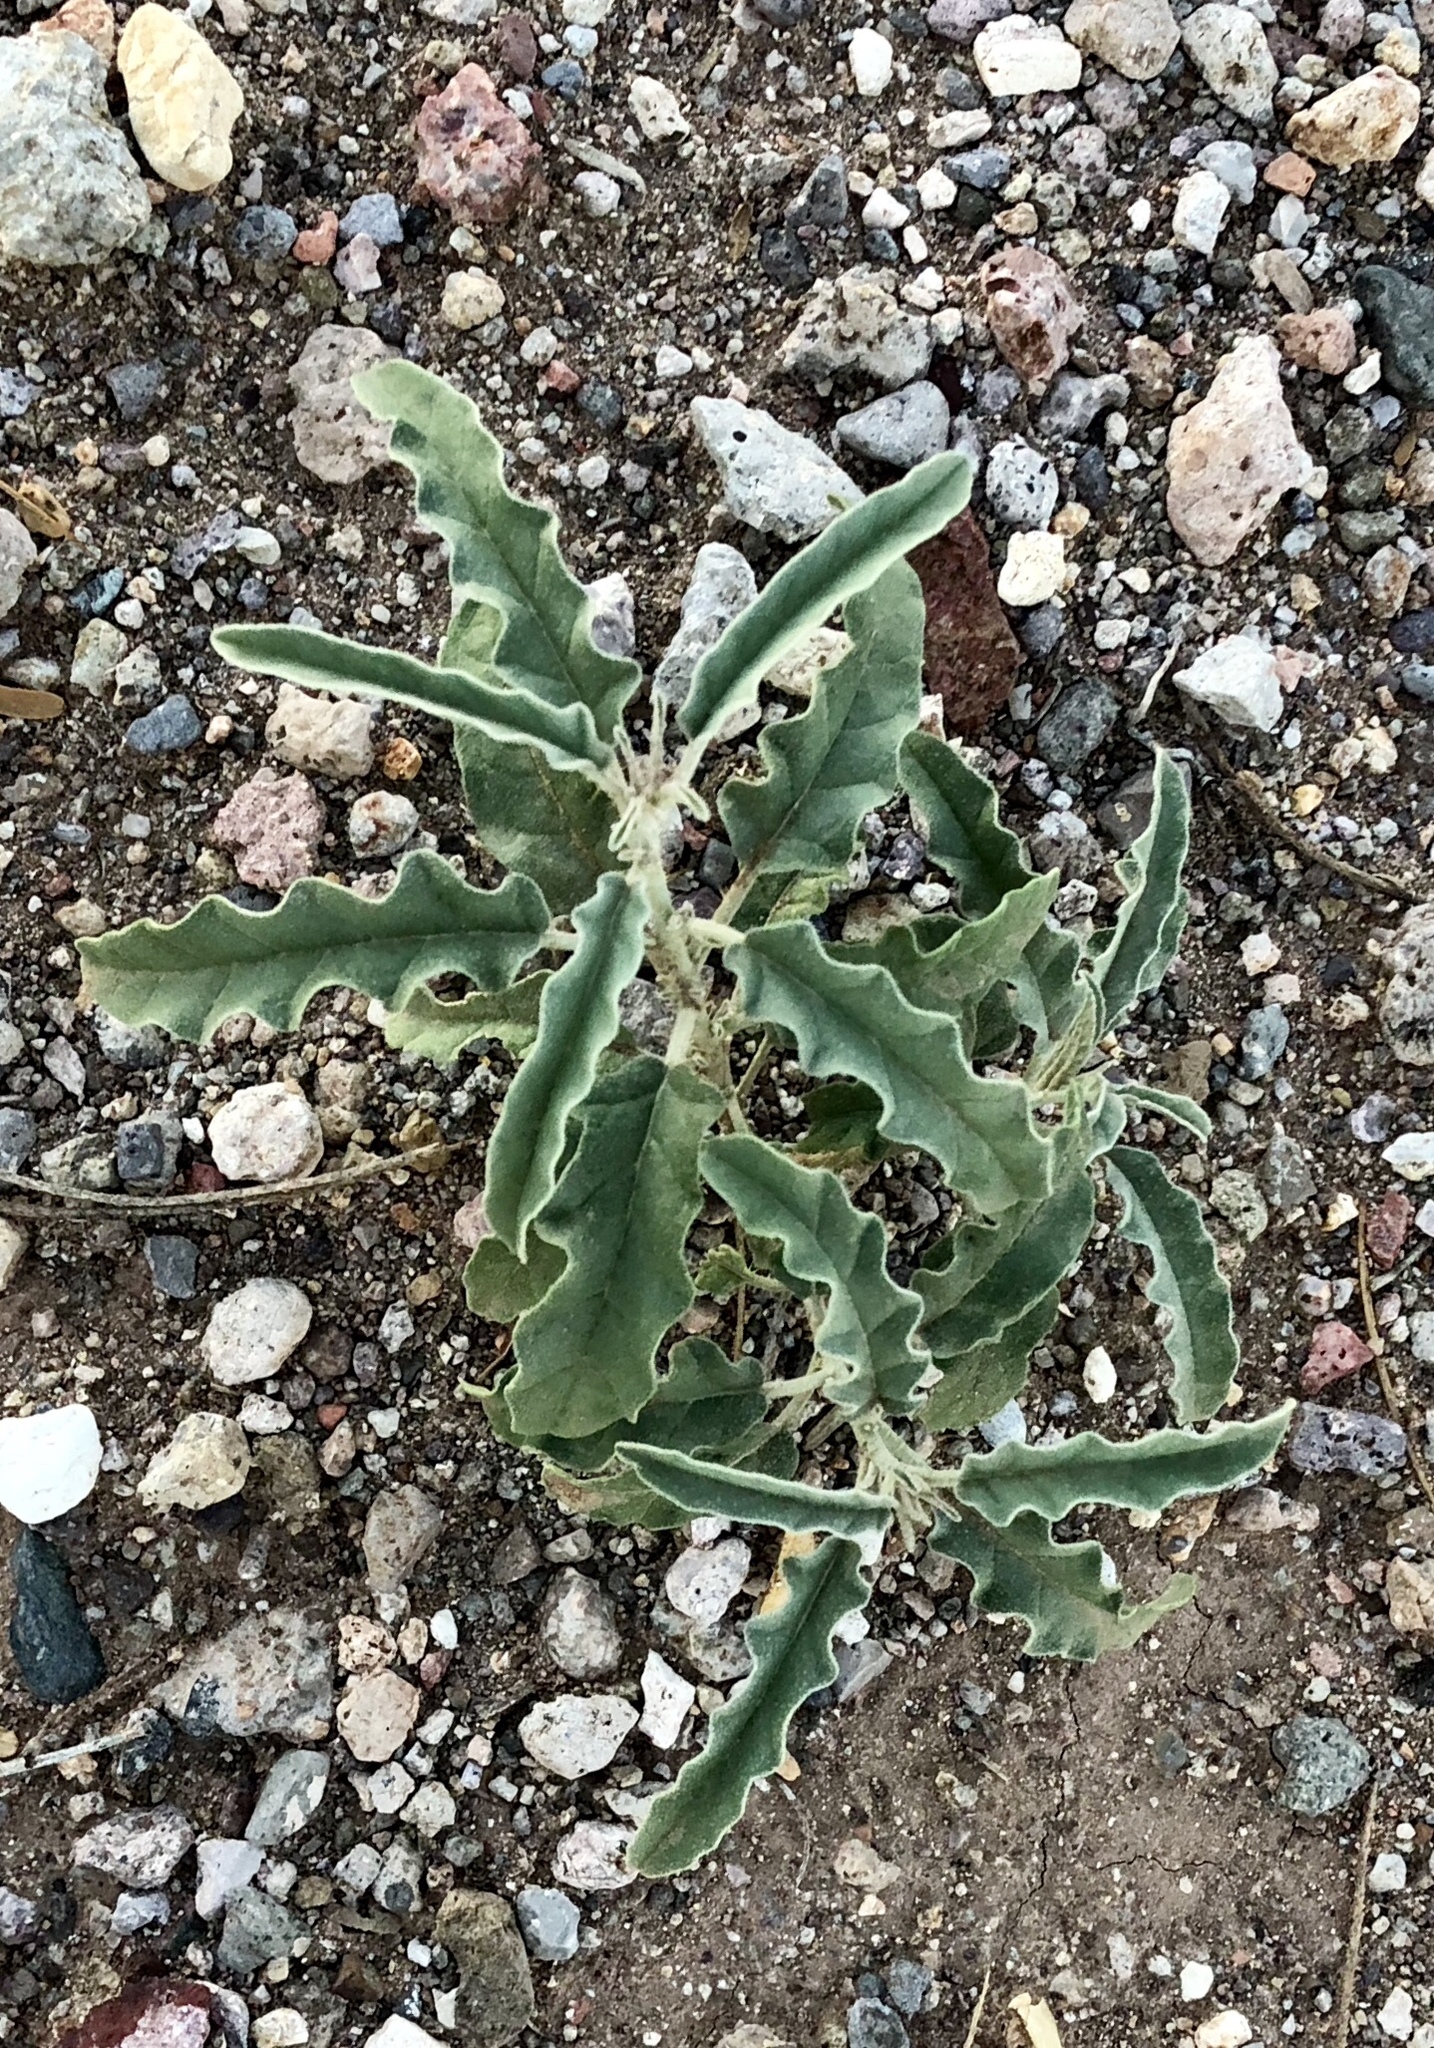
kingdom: Plantae
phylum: Tracheophyta
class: Magnoliopsida
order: Solanales
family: Solanaceae
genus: Solanum
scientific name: Solanum elaeagnifolium
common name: Silverleaf nightshade
